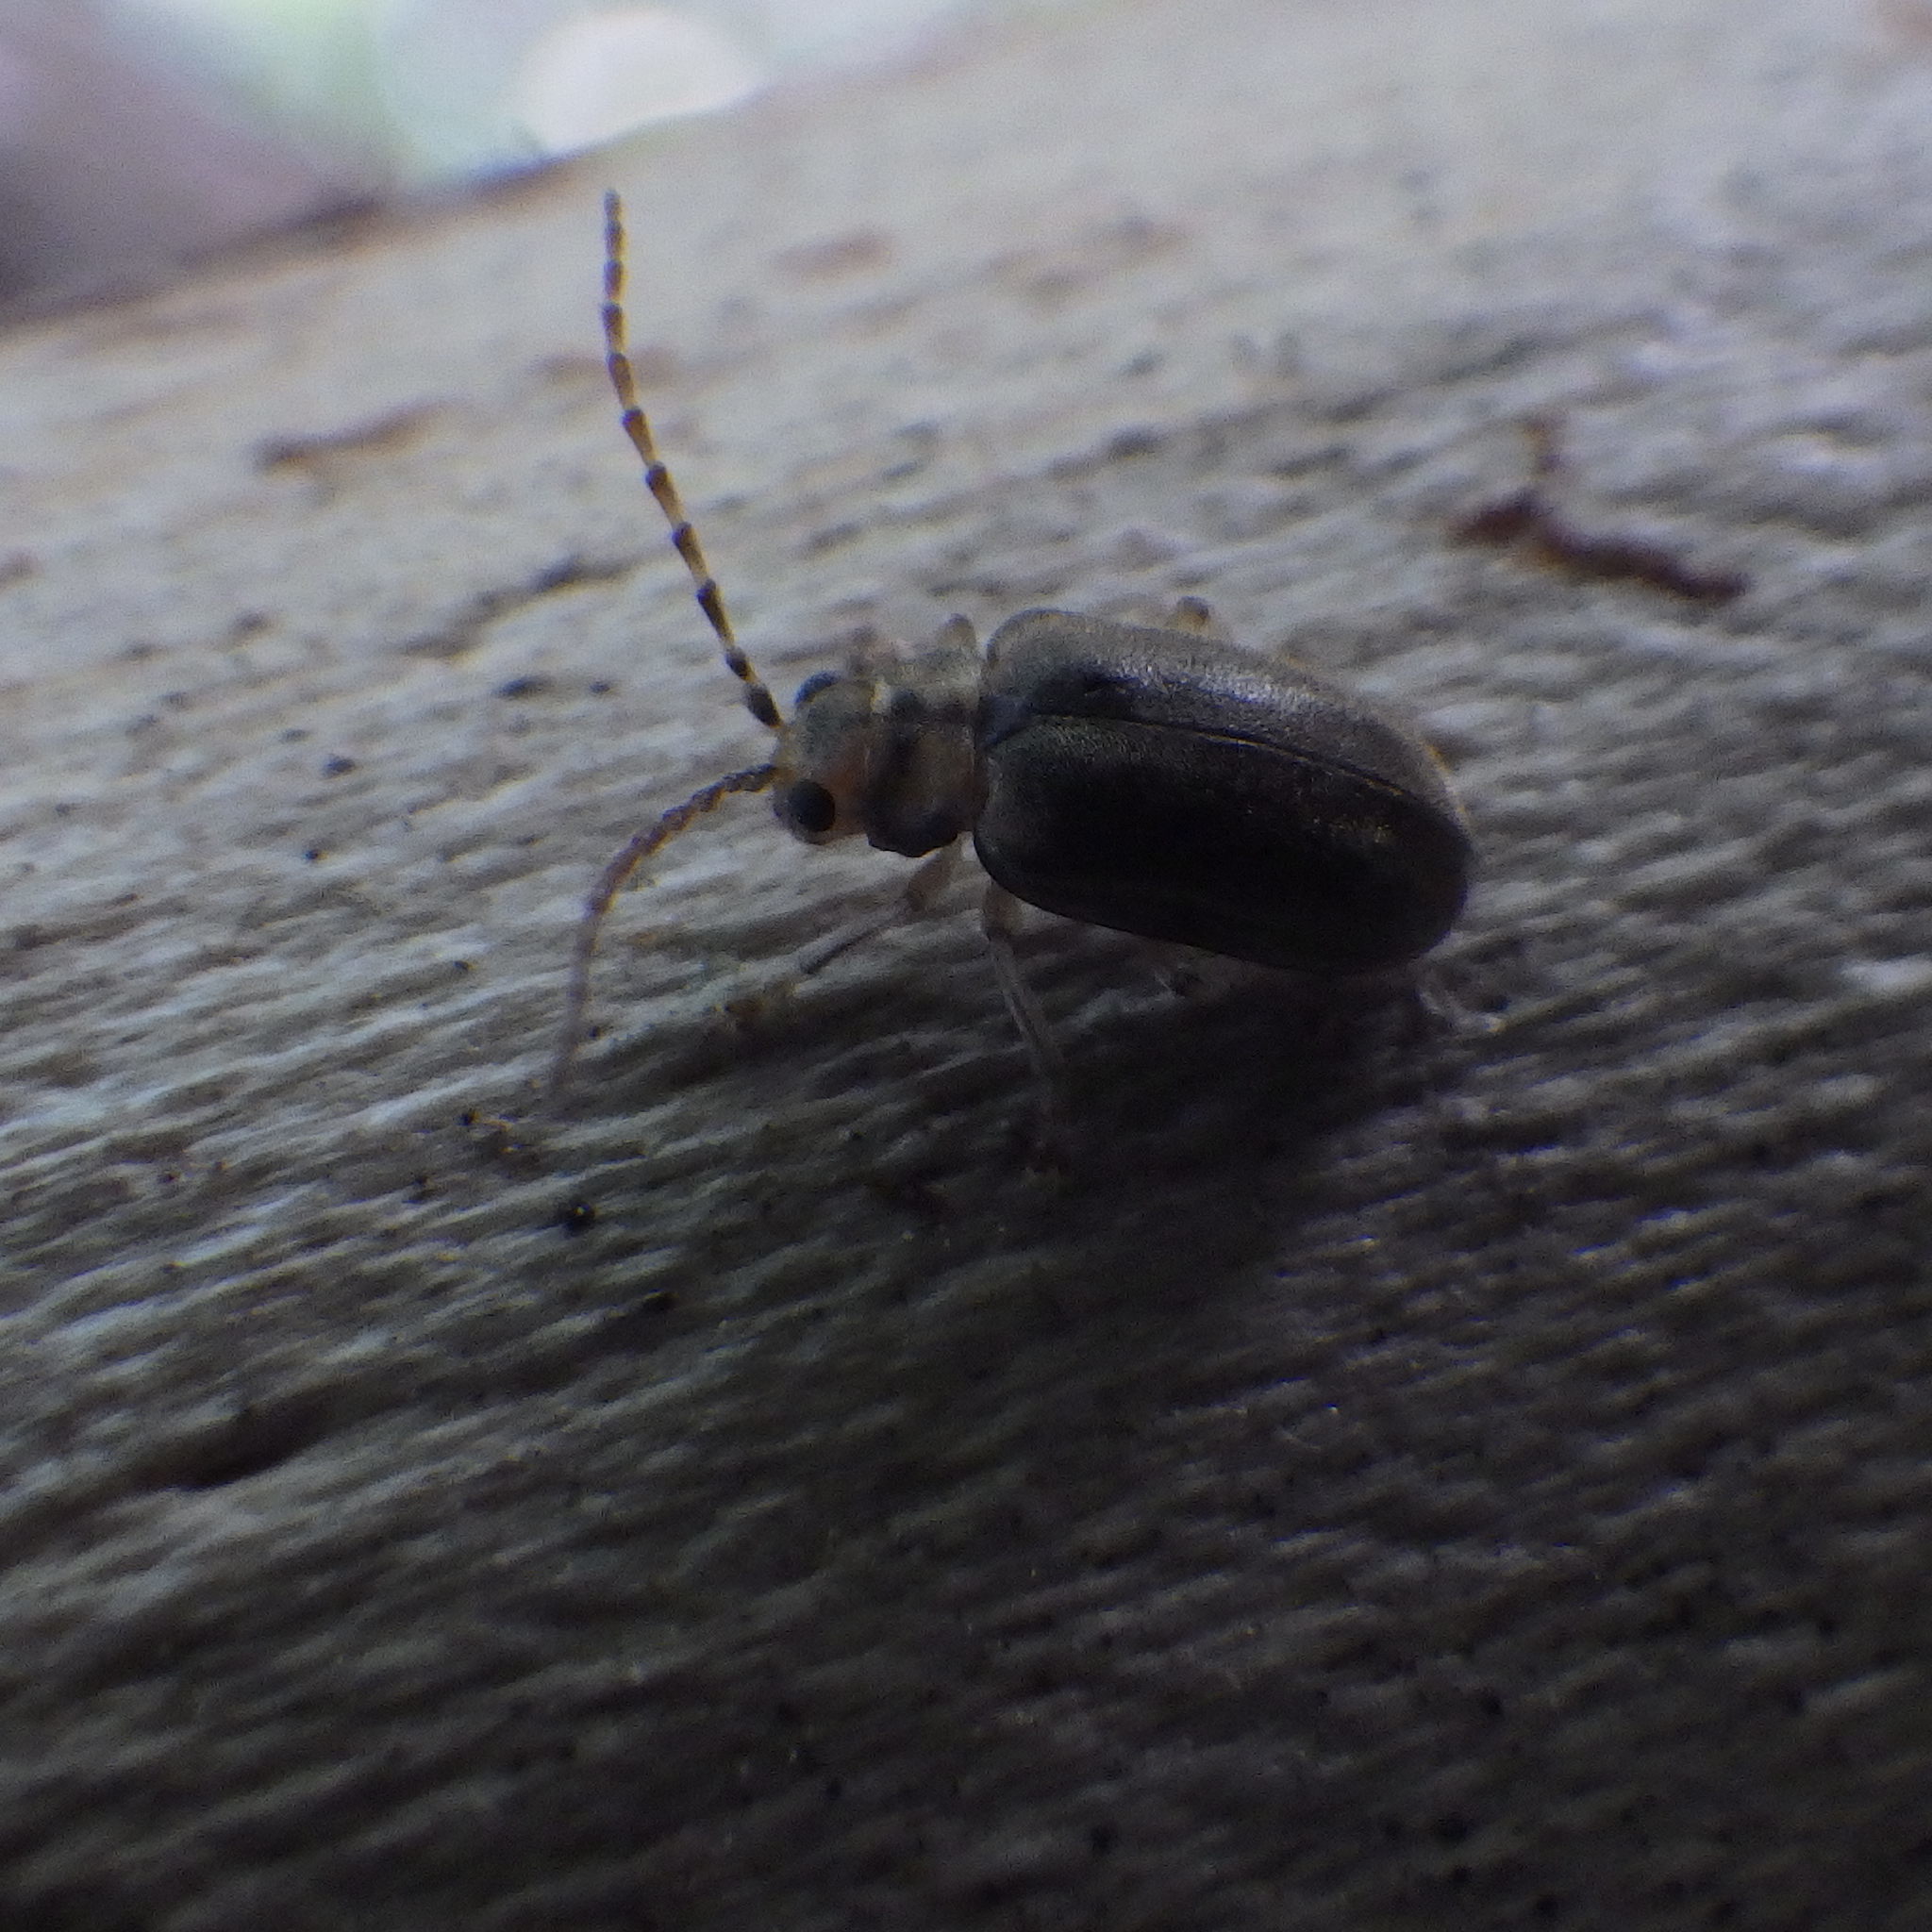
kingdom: Animalia
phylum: Arthropoda
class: Insecta
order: Coleoptera
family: Chrysomelidae
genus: Pyrrhalta
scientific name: Pyrrhalta viburni
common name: Guelder-rose leaf beetle
